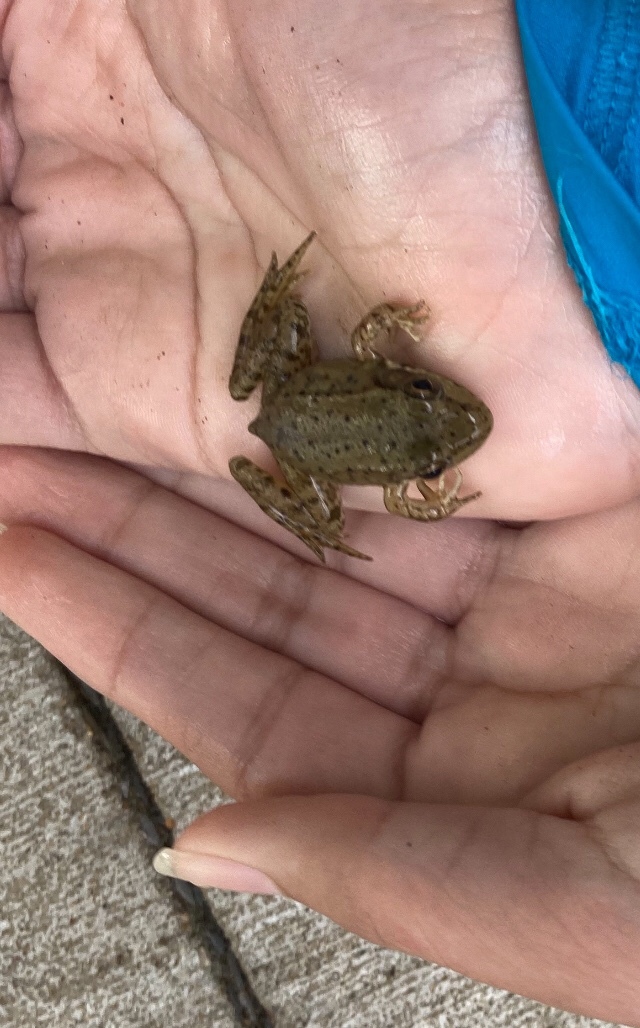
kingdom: Animalia
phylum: Chordata
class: Amphibia
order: Anura
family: Ranidae
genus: Lithobates
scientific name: Lithobates clamitans
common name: Green frog
